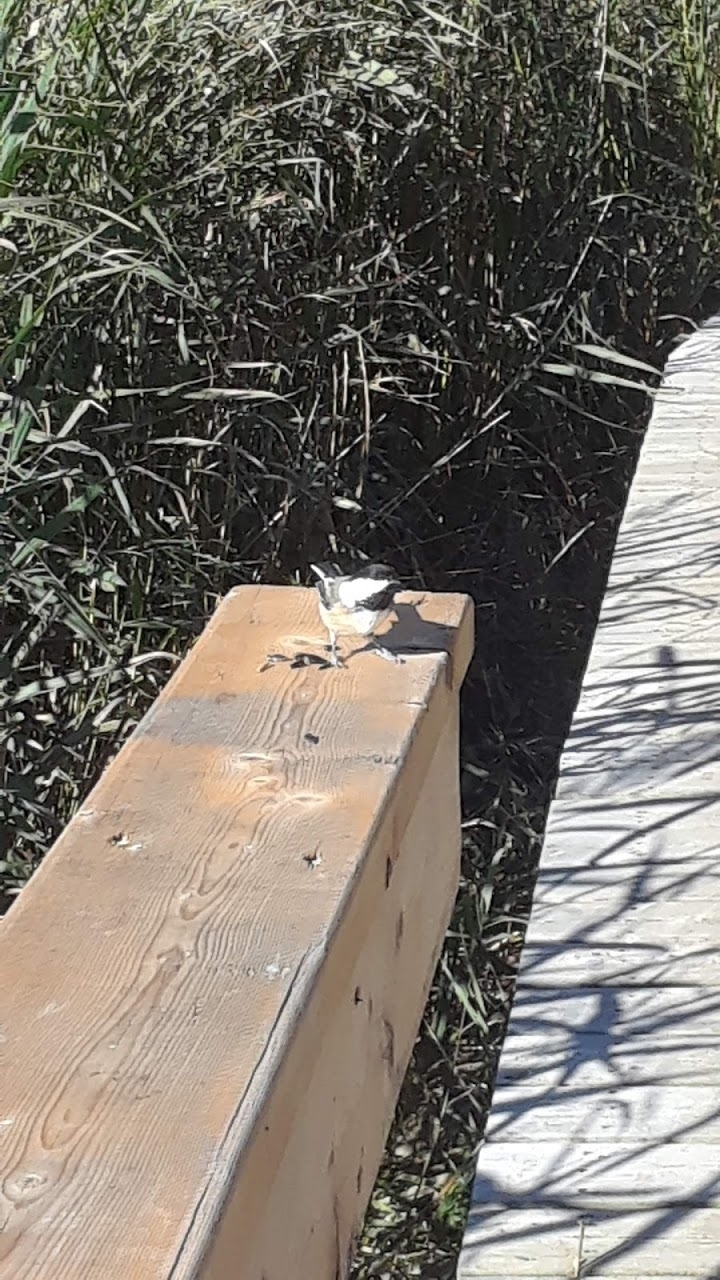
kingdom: Animalia
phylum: Chordata
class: Aves
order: Passeriformes
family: Paridae
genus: Poecile
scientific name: Poecile atricapillus
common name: Black-capped chickadee
